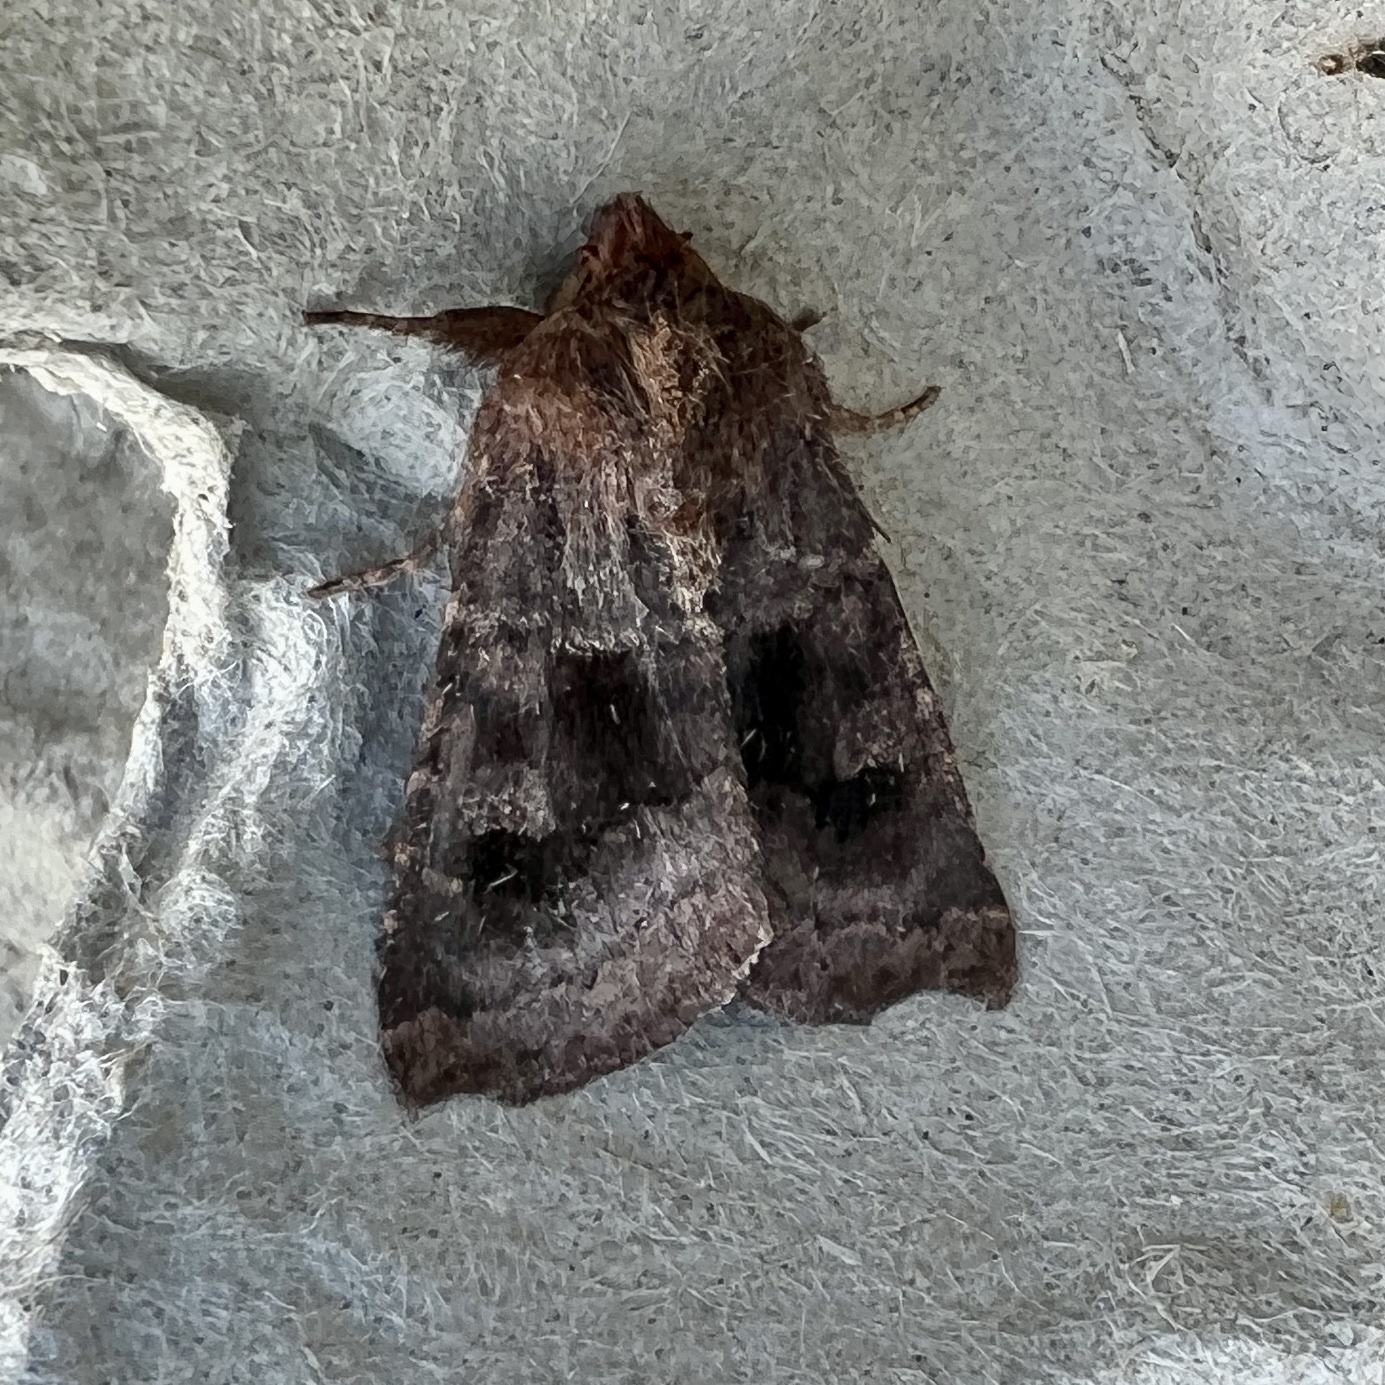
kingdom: Animalia
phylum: Arthropoda
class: Insecta
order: Lepidoptera
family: Noctuidae
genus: Nephelodes
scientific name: Nephelodes minians
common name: Bronzed cutworm
